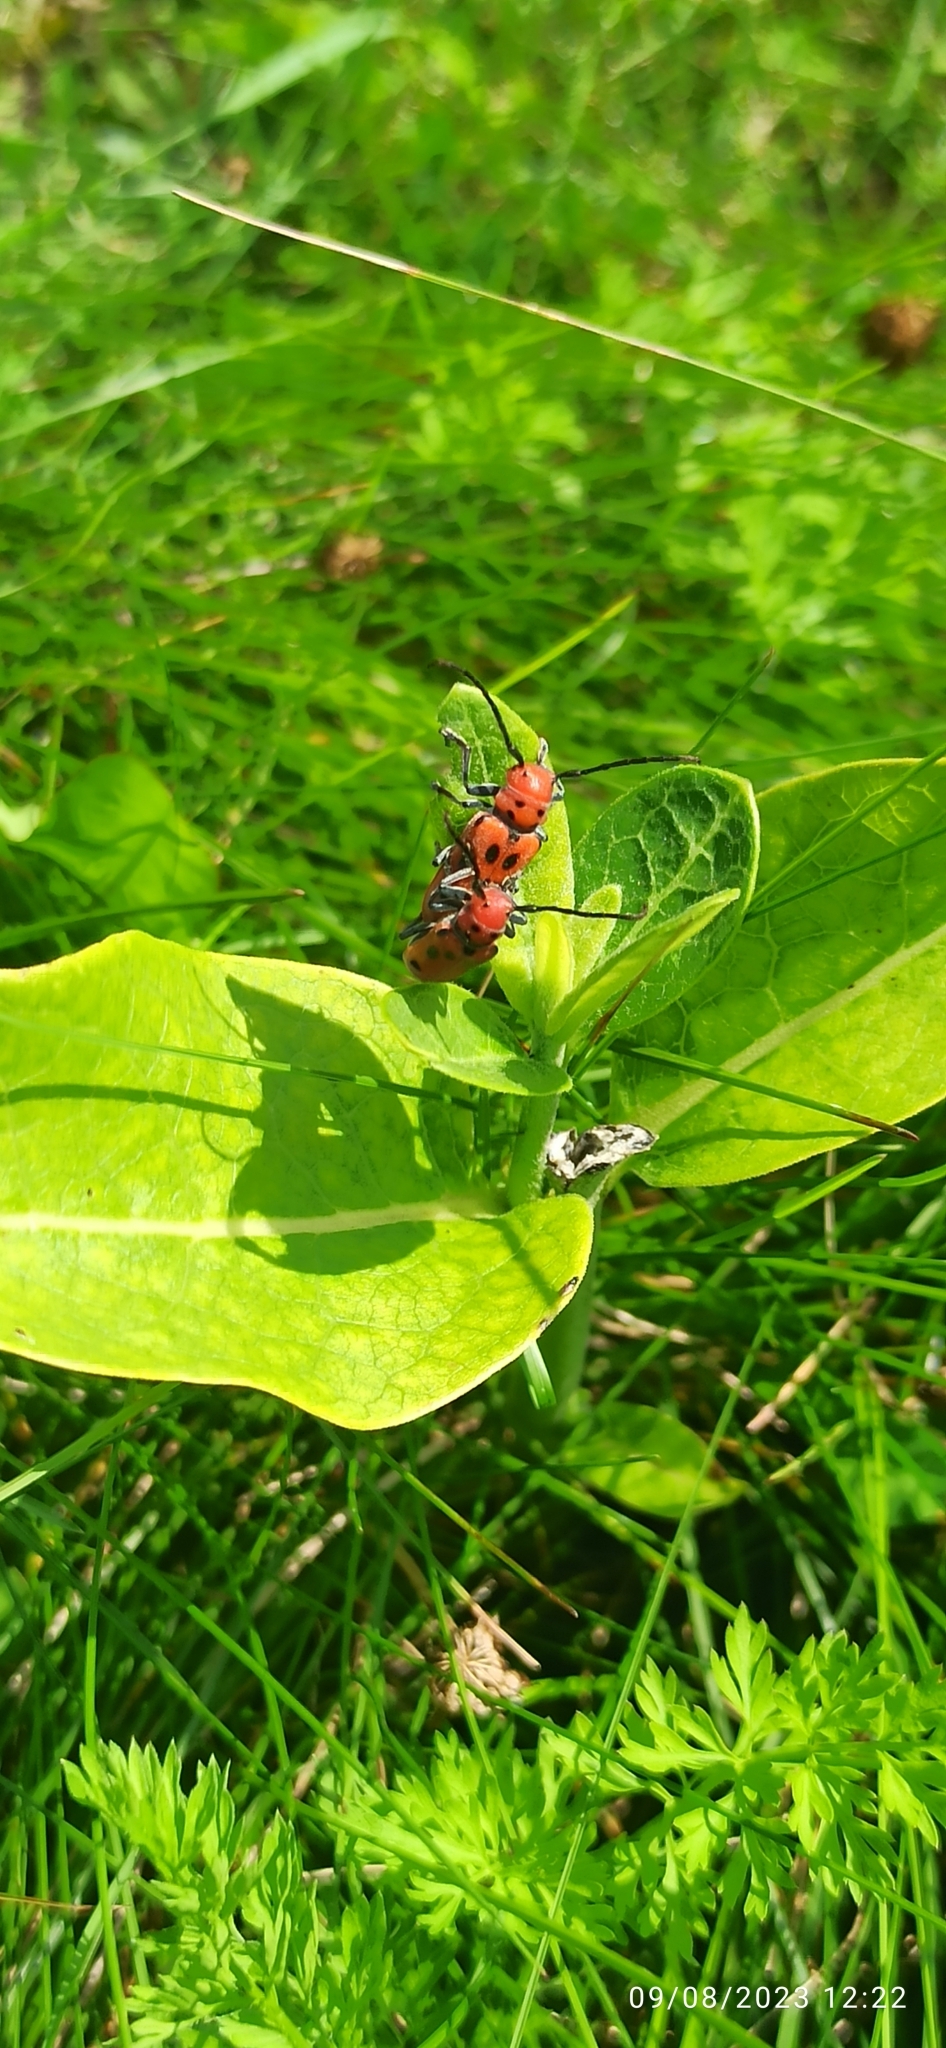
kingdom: Animalia
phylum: Arthropoda
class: Insecta
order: Coleoptera
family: Cerambycidae
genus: Tetraopes
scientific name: Tetraopes tetrophthalmus
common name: Red milkweed beetle
